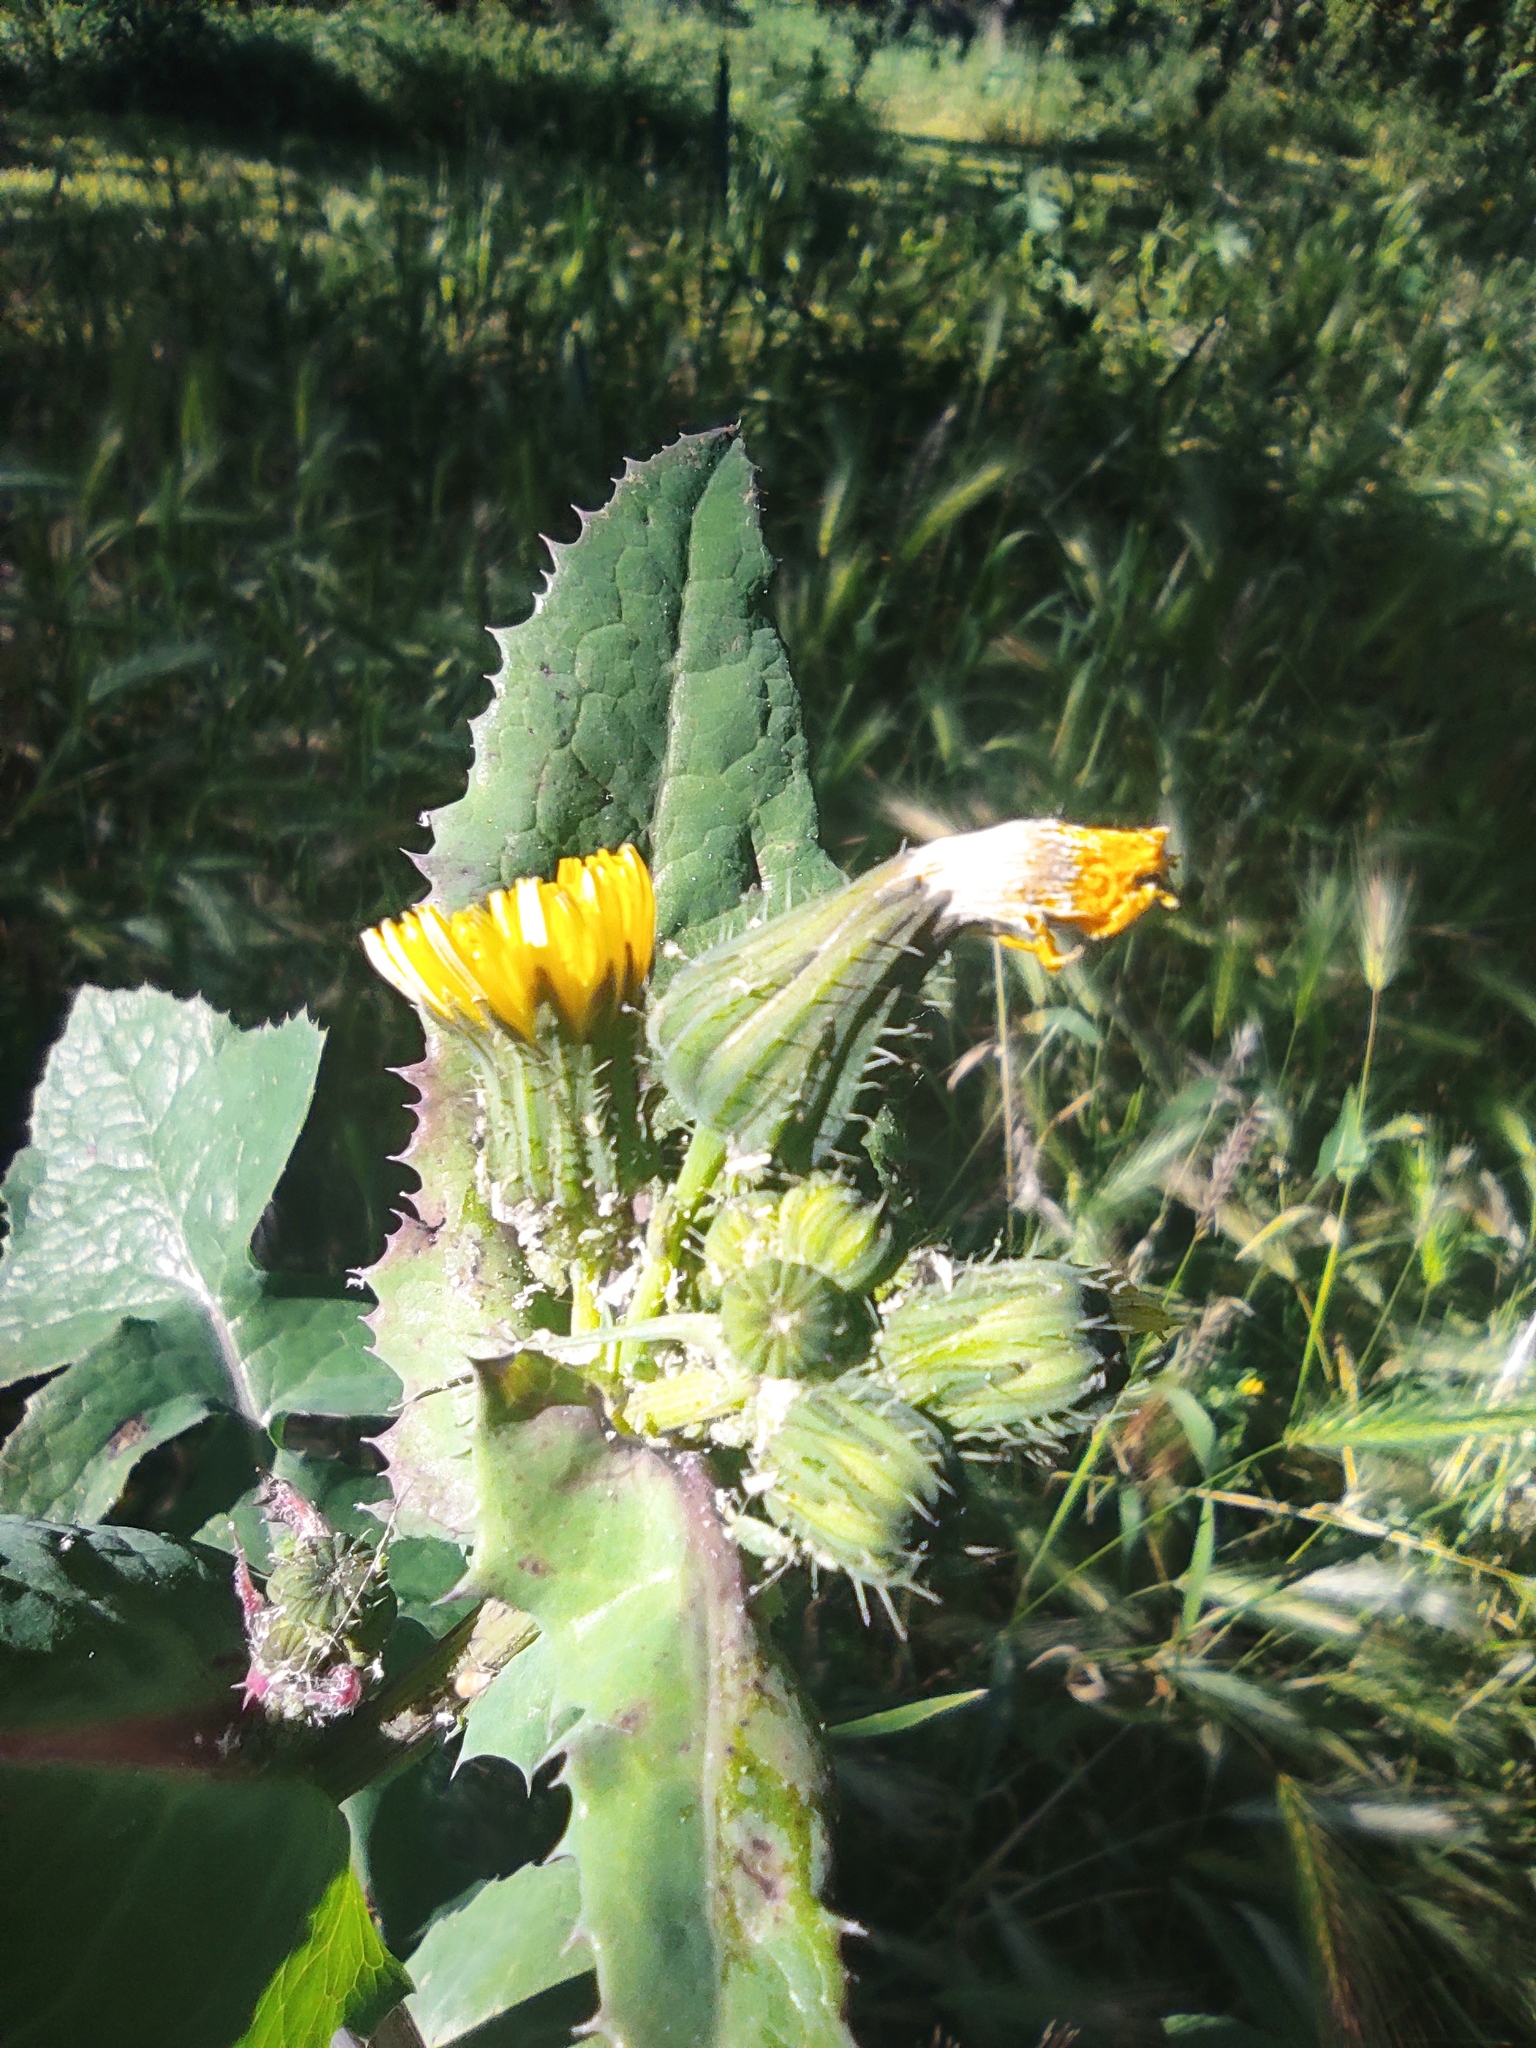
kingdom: Plantae
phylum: Tracheophyta
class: Magnoliopsida
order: Asterales
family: Asteraceae
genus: Sonchus
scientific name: Sonchus oleraceus
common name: Common sowthistle
